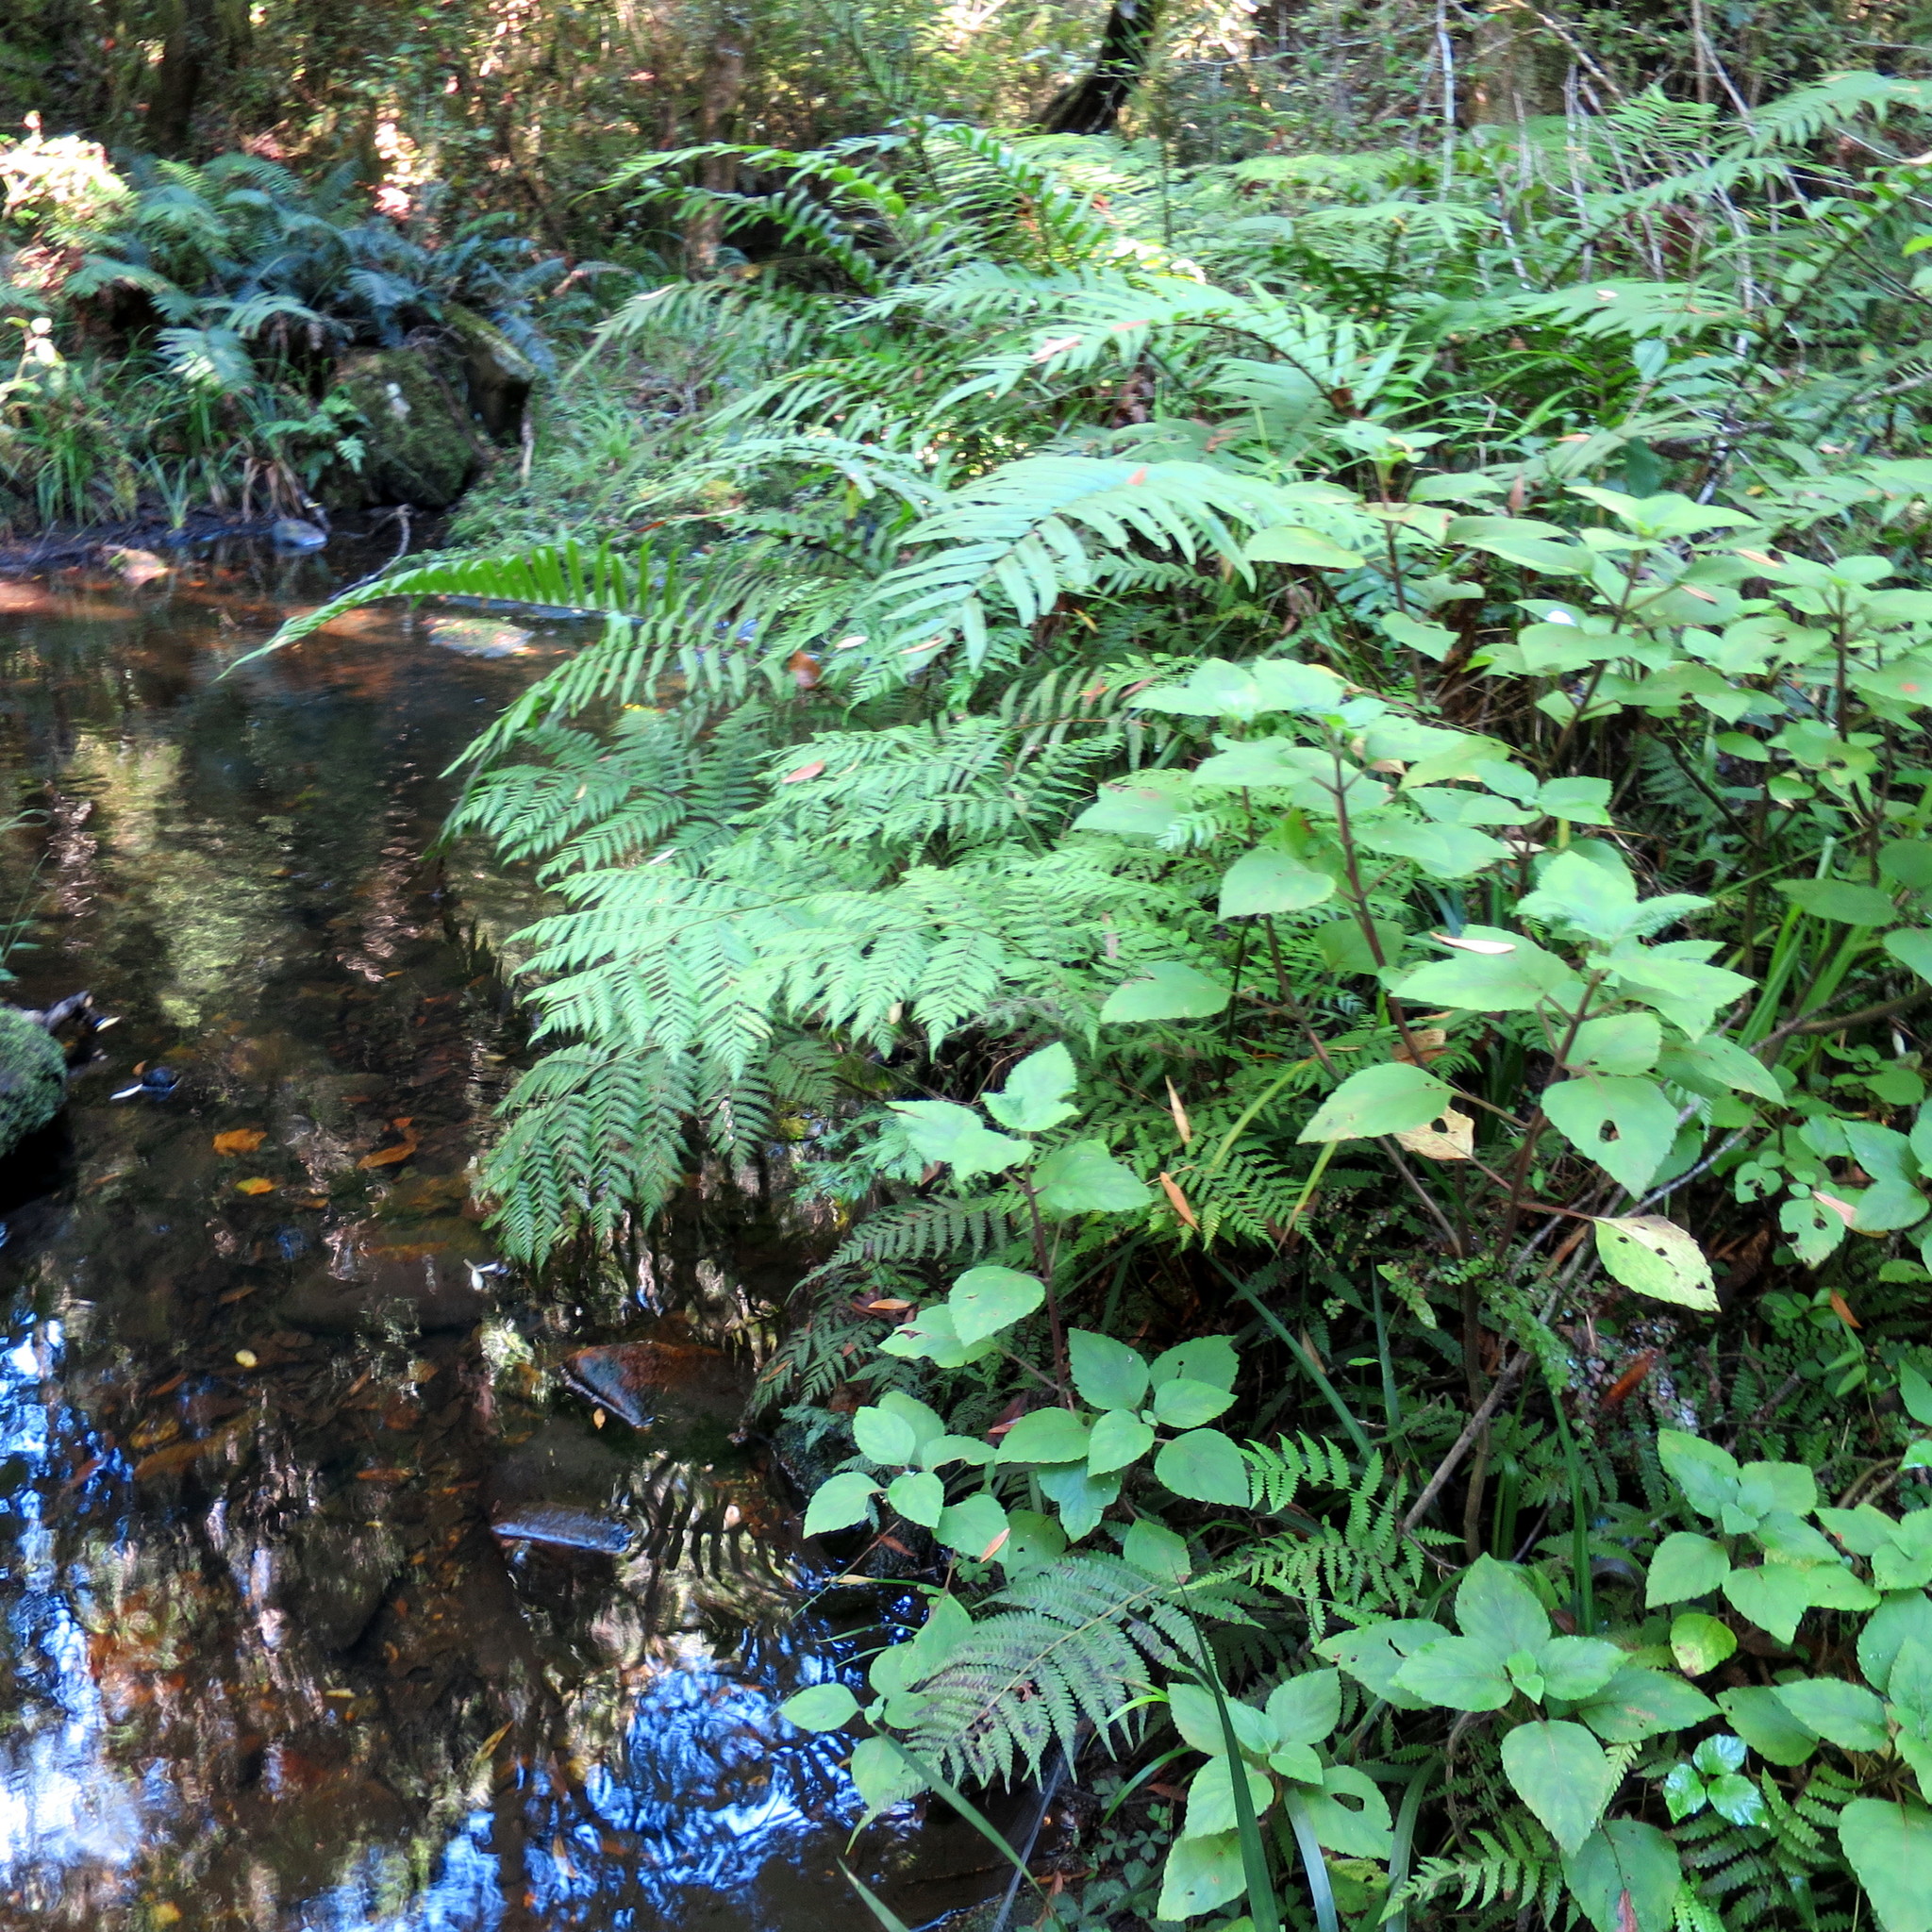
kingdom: Plantae
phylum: Tracheophyta
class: Magnoliopsida
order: Lamiales
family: Lamiaceae
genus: Plectranthus
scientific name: Plectranthus fruticosus
